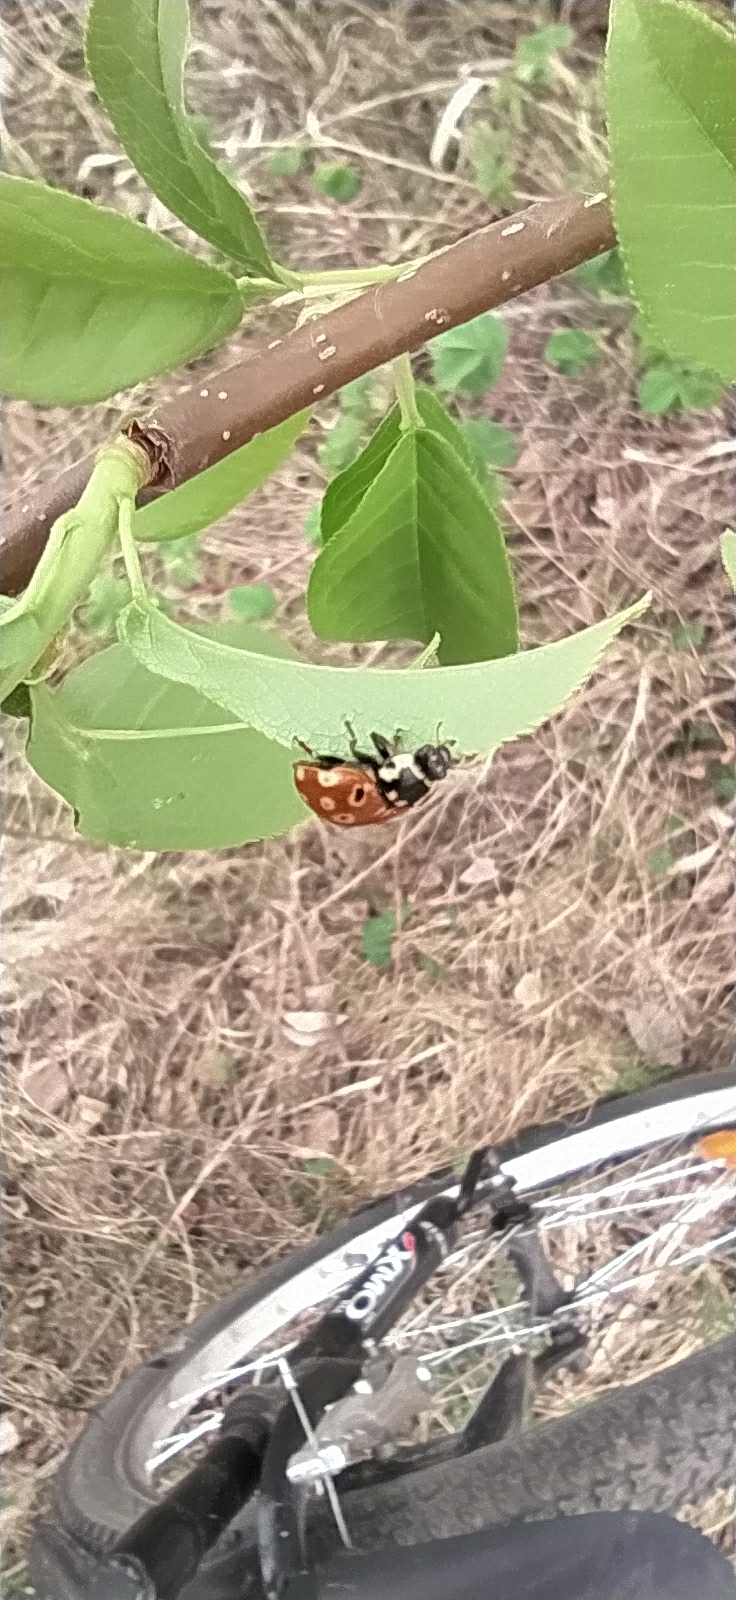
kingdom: Animalia
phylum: Arthropoda
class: Insecta
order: Coleoptera
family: Coccinellidae
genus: Anatis
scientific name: Anatis ocellata
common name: Eyed ladybird
